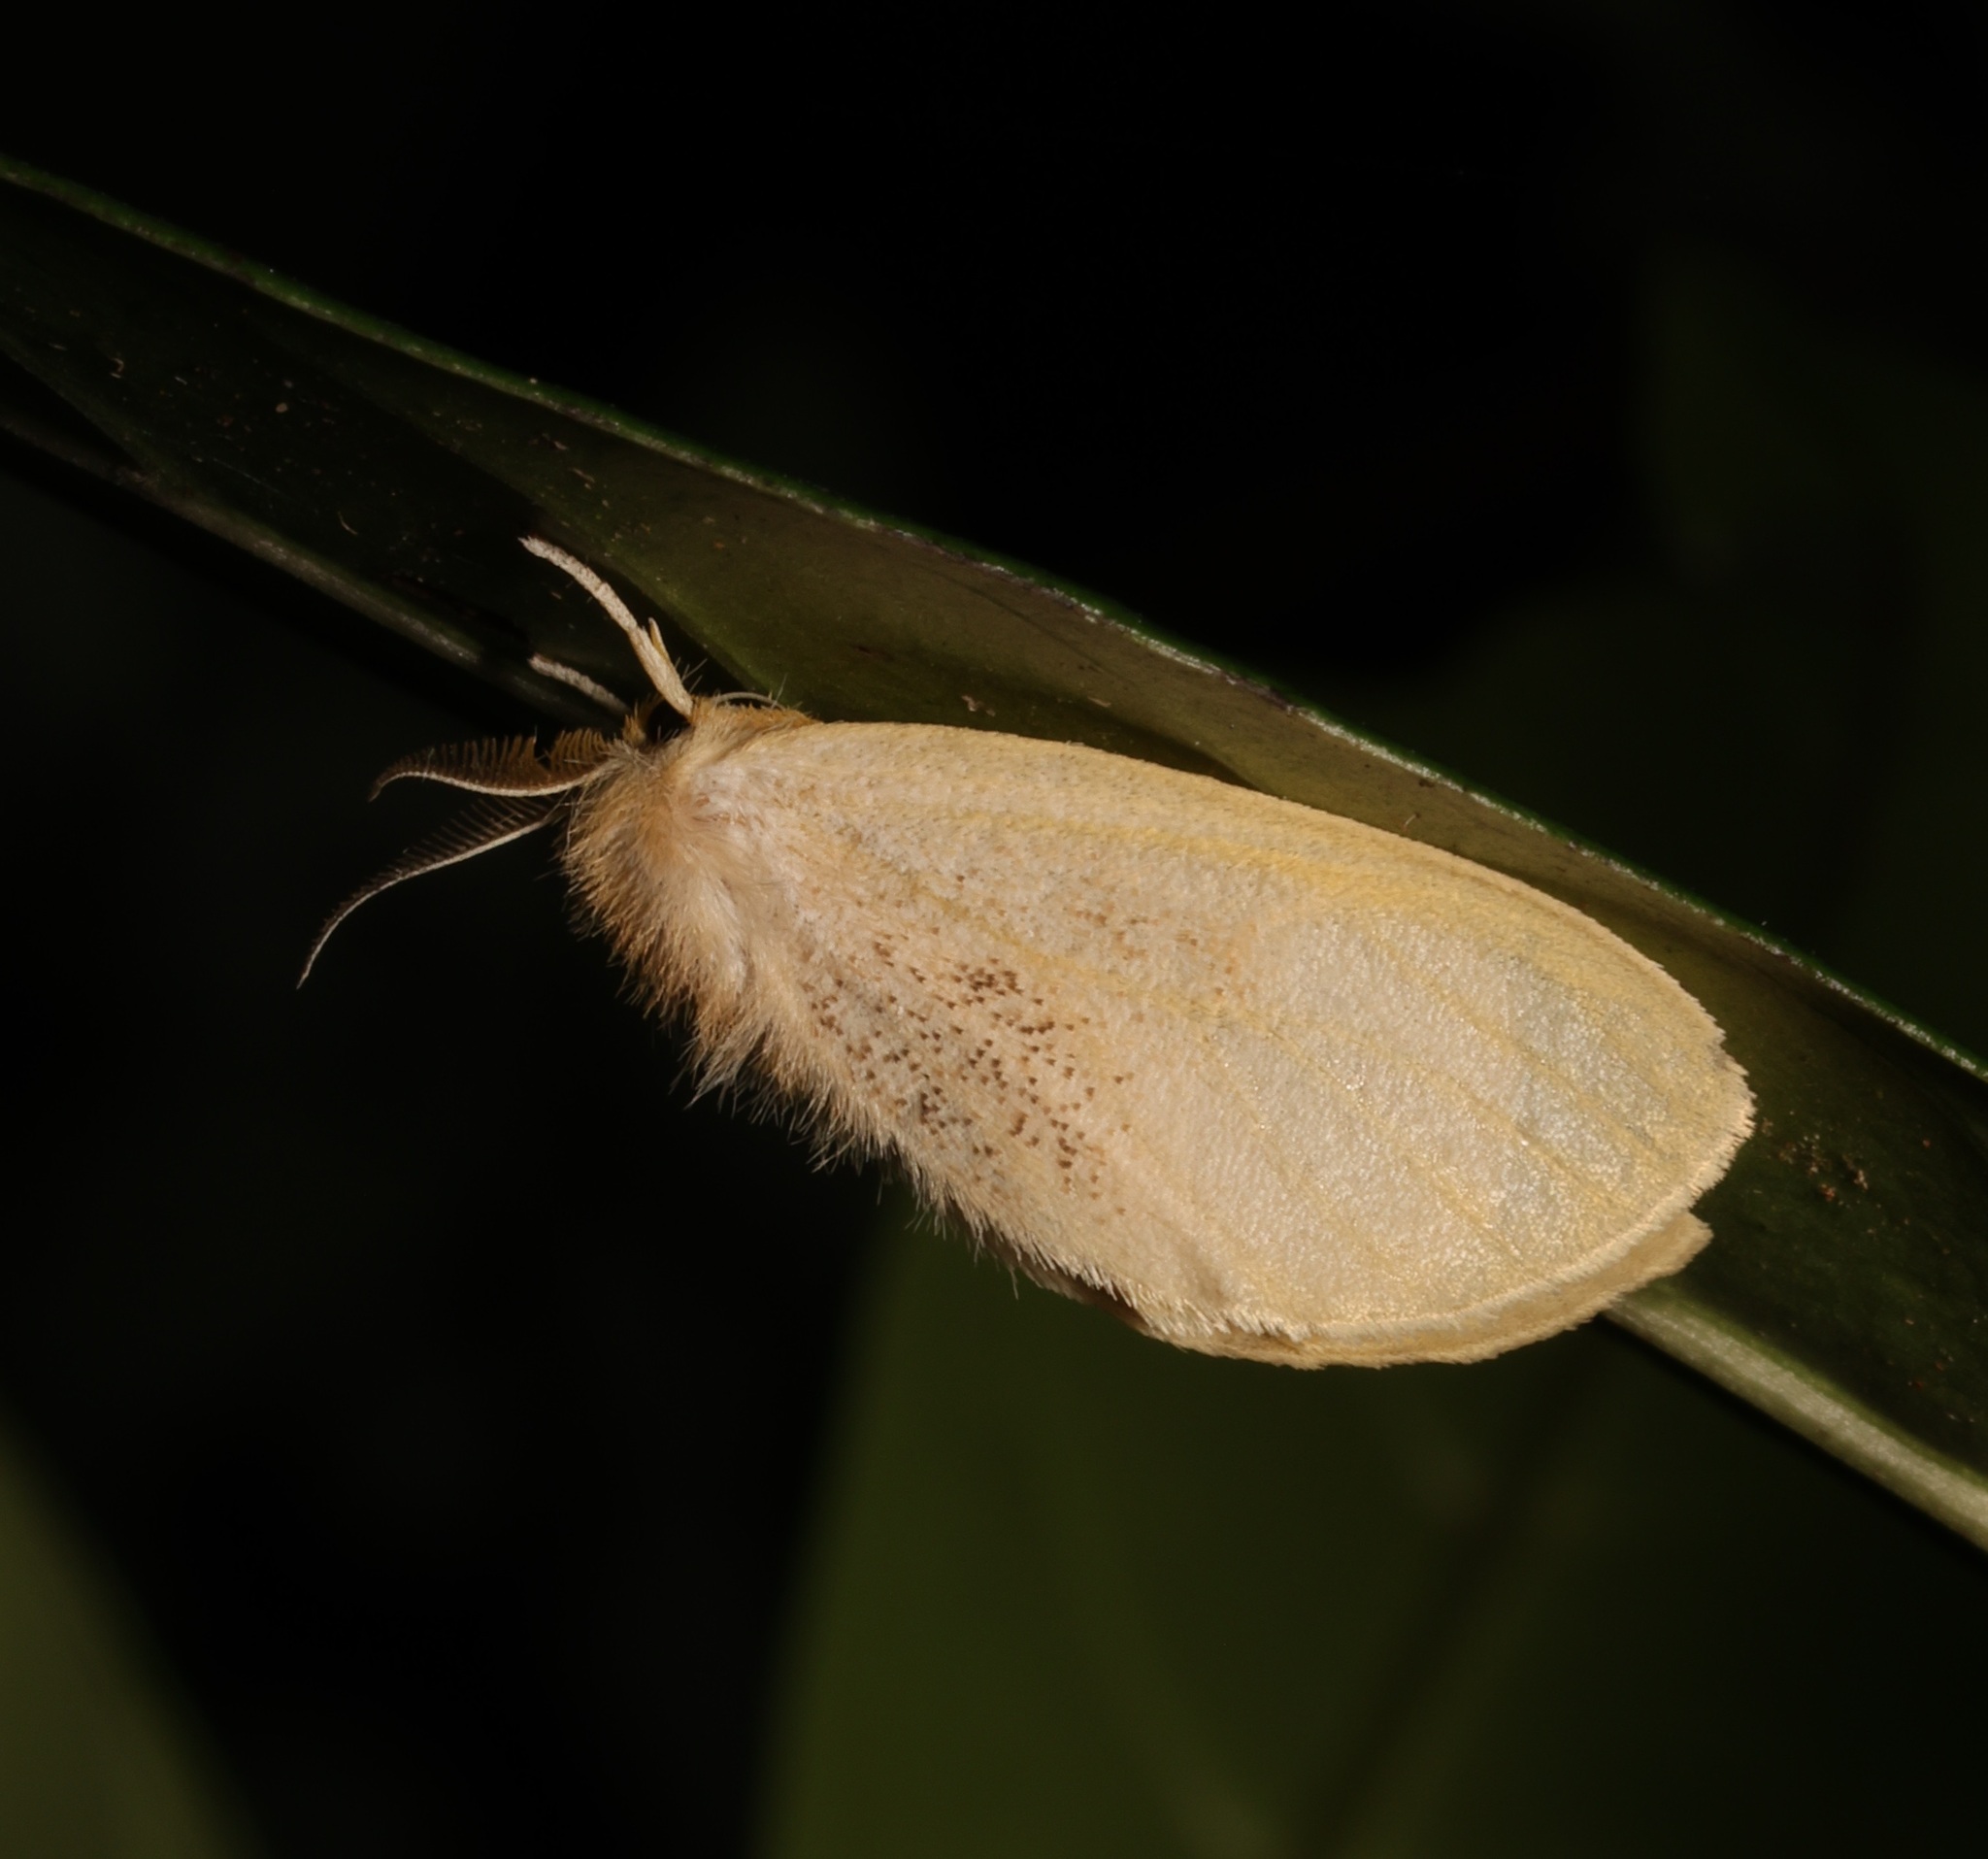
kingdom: Animalia
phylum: Arthropoda
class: Insecta
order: Lepidoptera
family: Erebidae
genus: Perina
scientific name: Perina nuda
